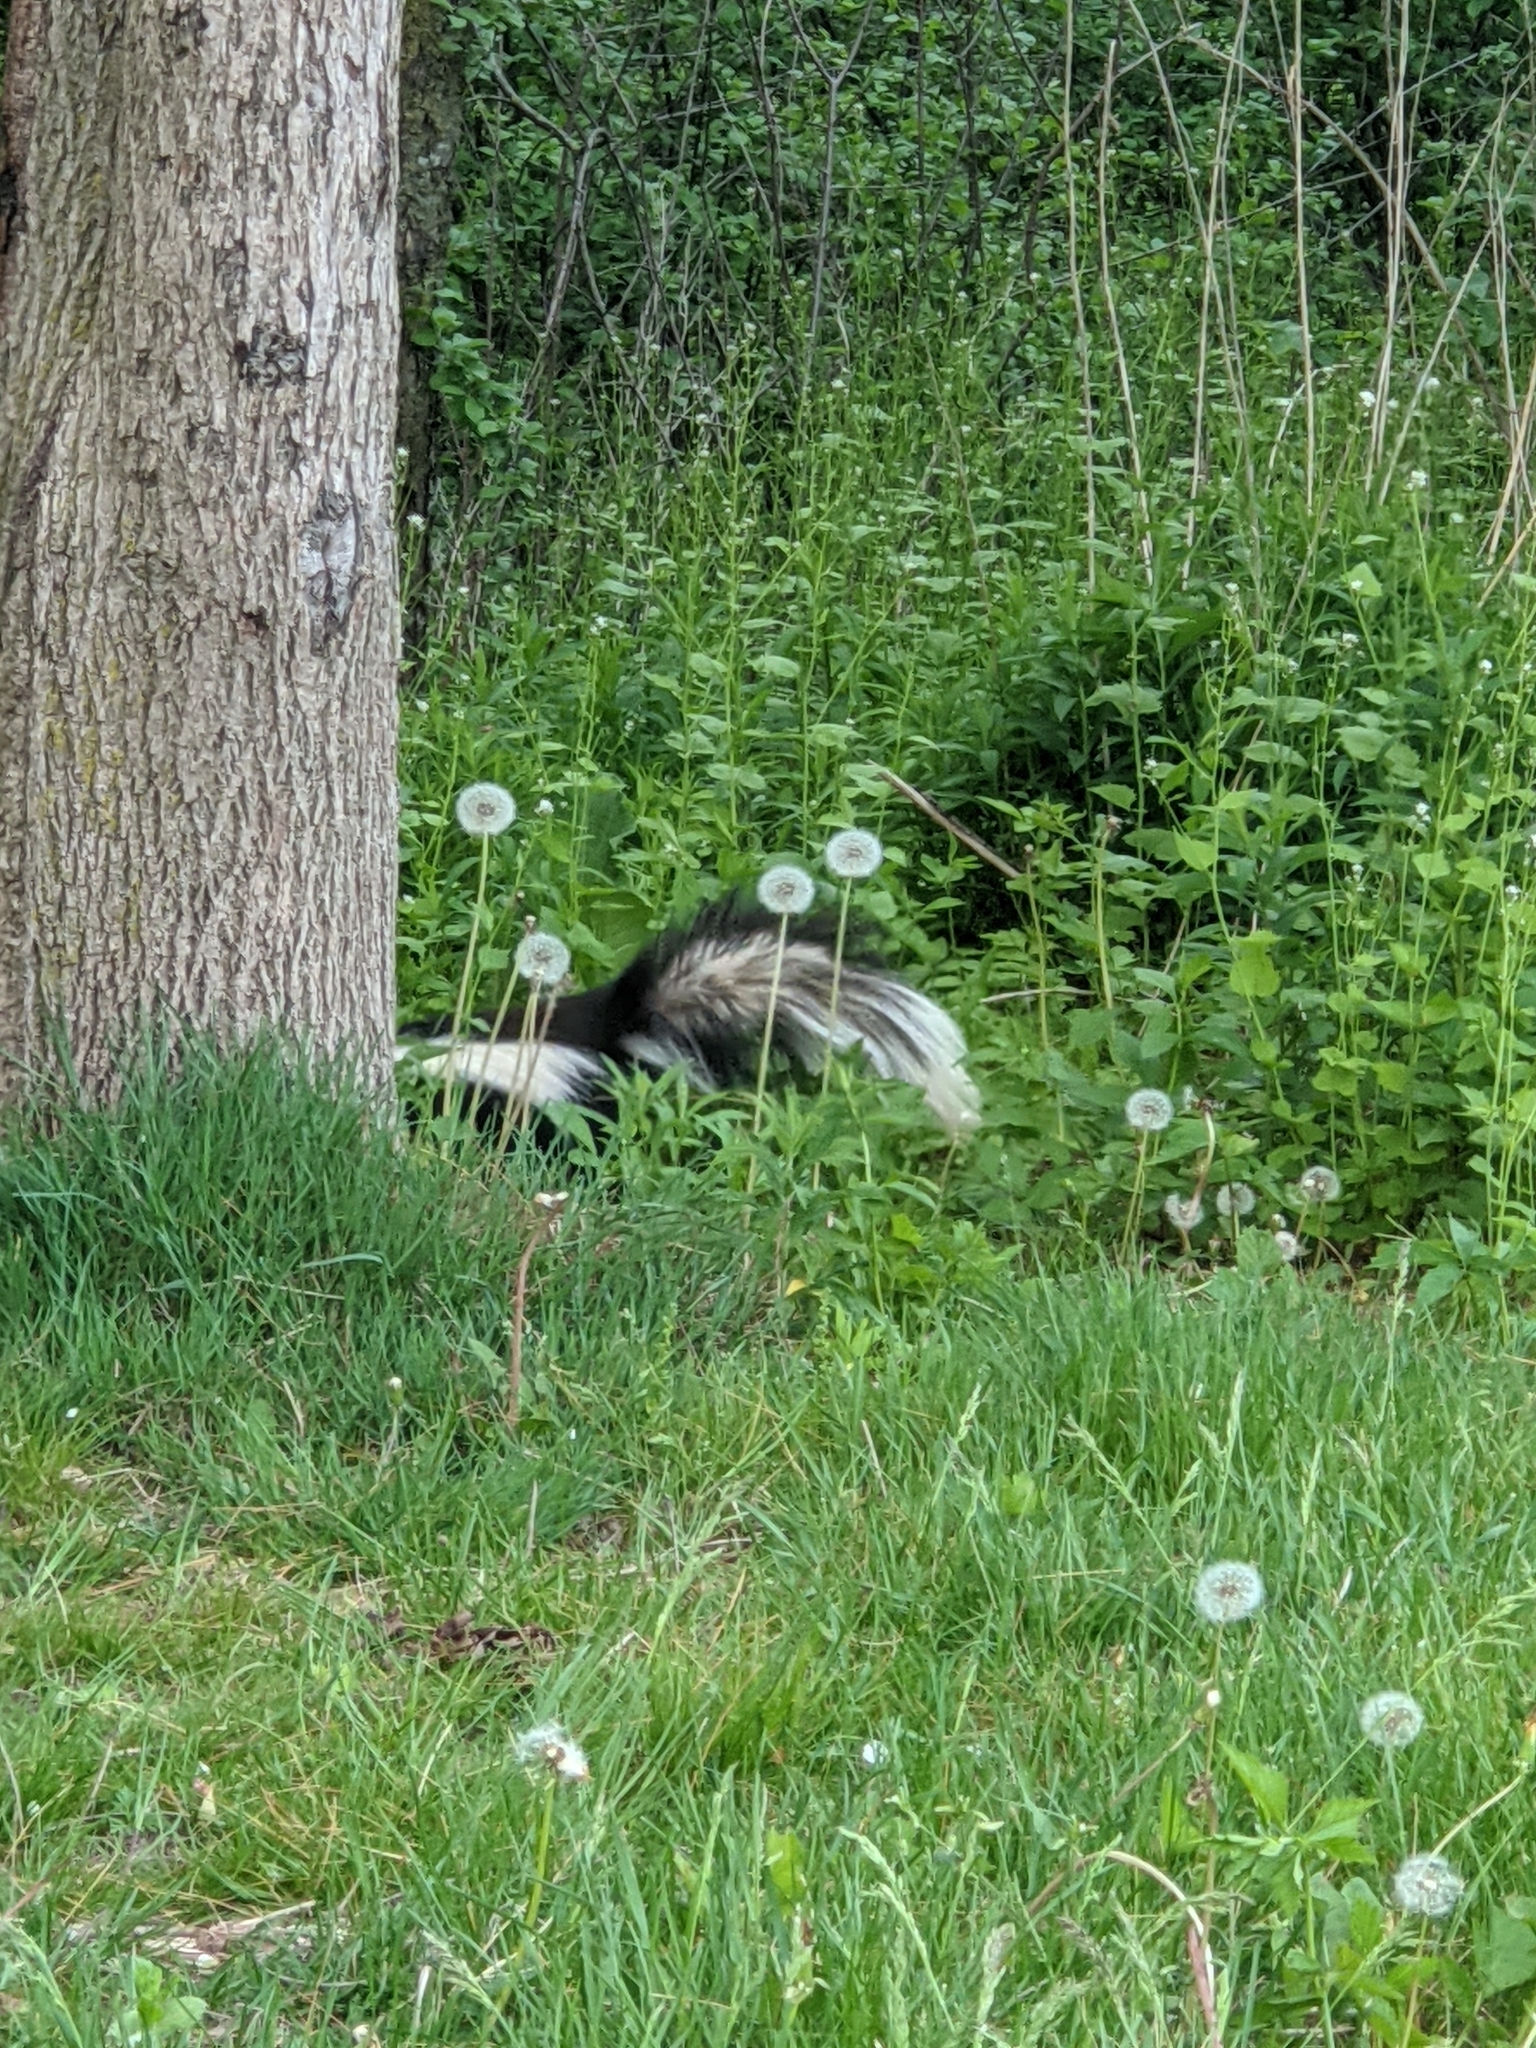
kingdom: Animalia
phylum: Chordata
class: Mammalia
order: Carnivora
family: Mephitidae
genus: Mephitis
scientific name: Mephitis mephitis
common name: Striped skunk
